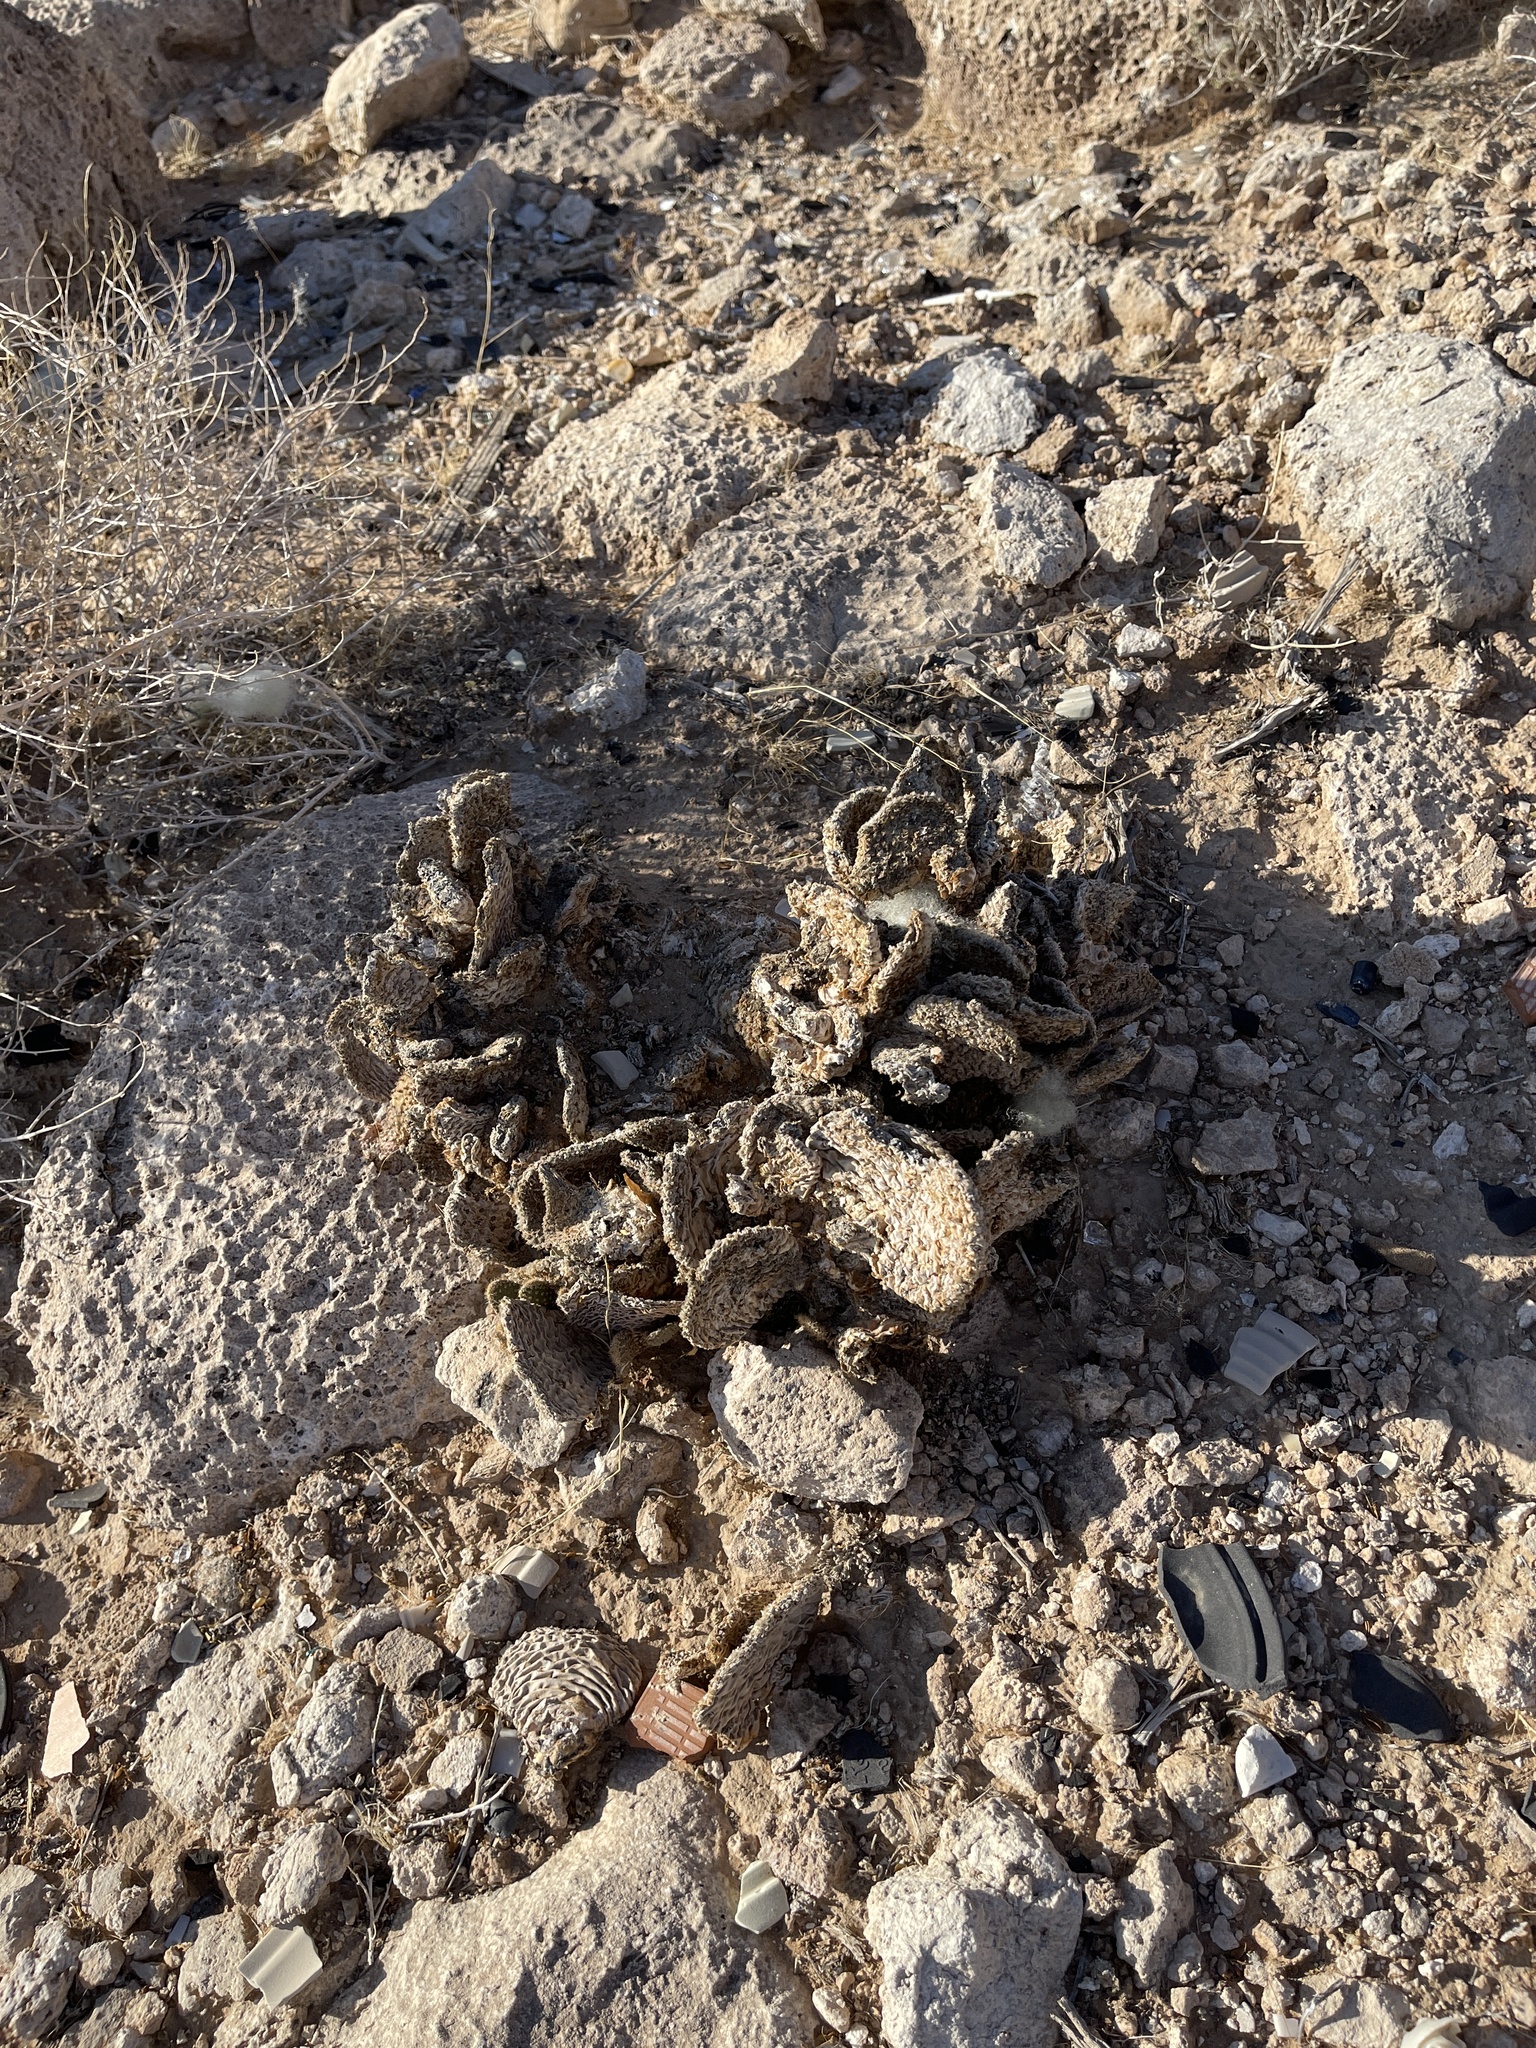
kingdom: Plantae
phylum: Tracheophyta
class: Magnoliopsida
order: Caryophyllales
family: Cactaceae
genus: Opuntia
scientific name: Opuntia basilaris
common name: Beavertail prickly-pear
